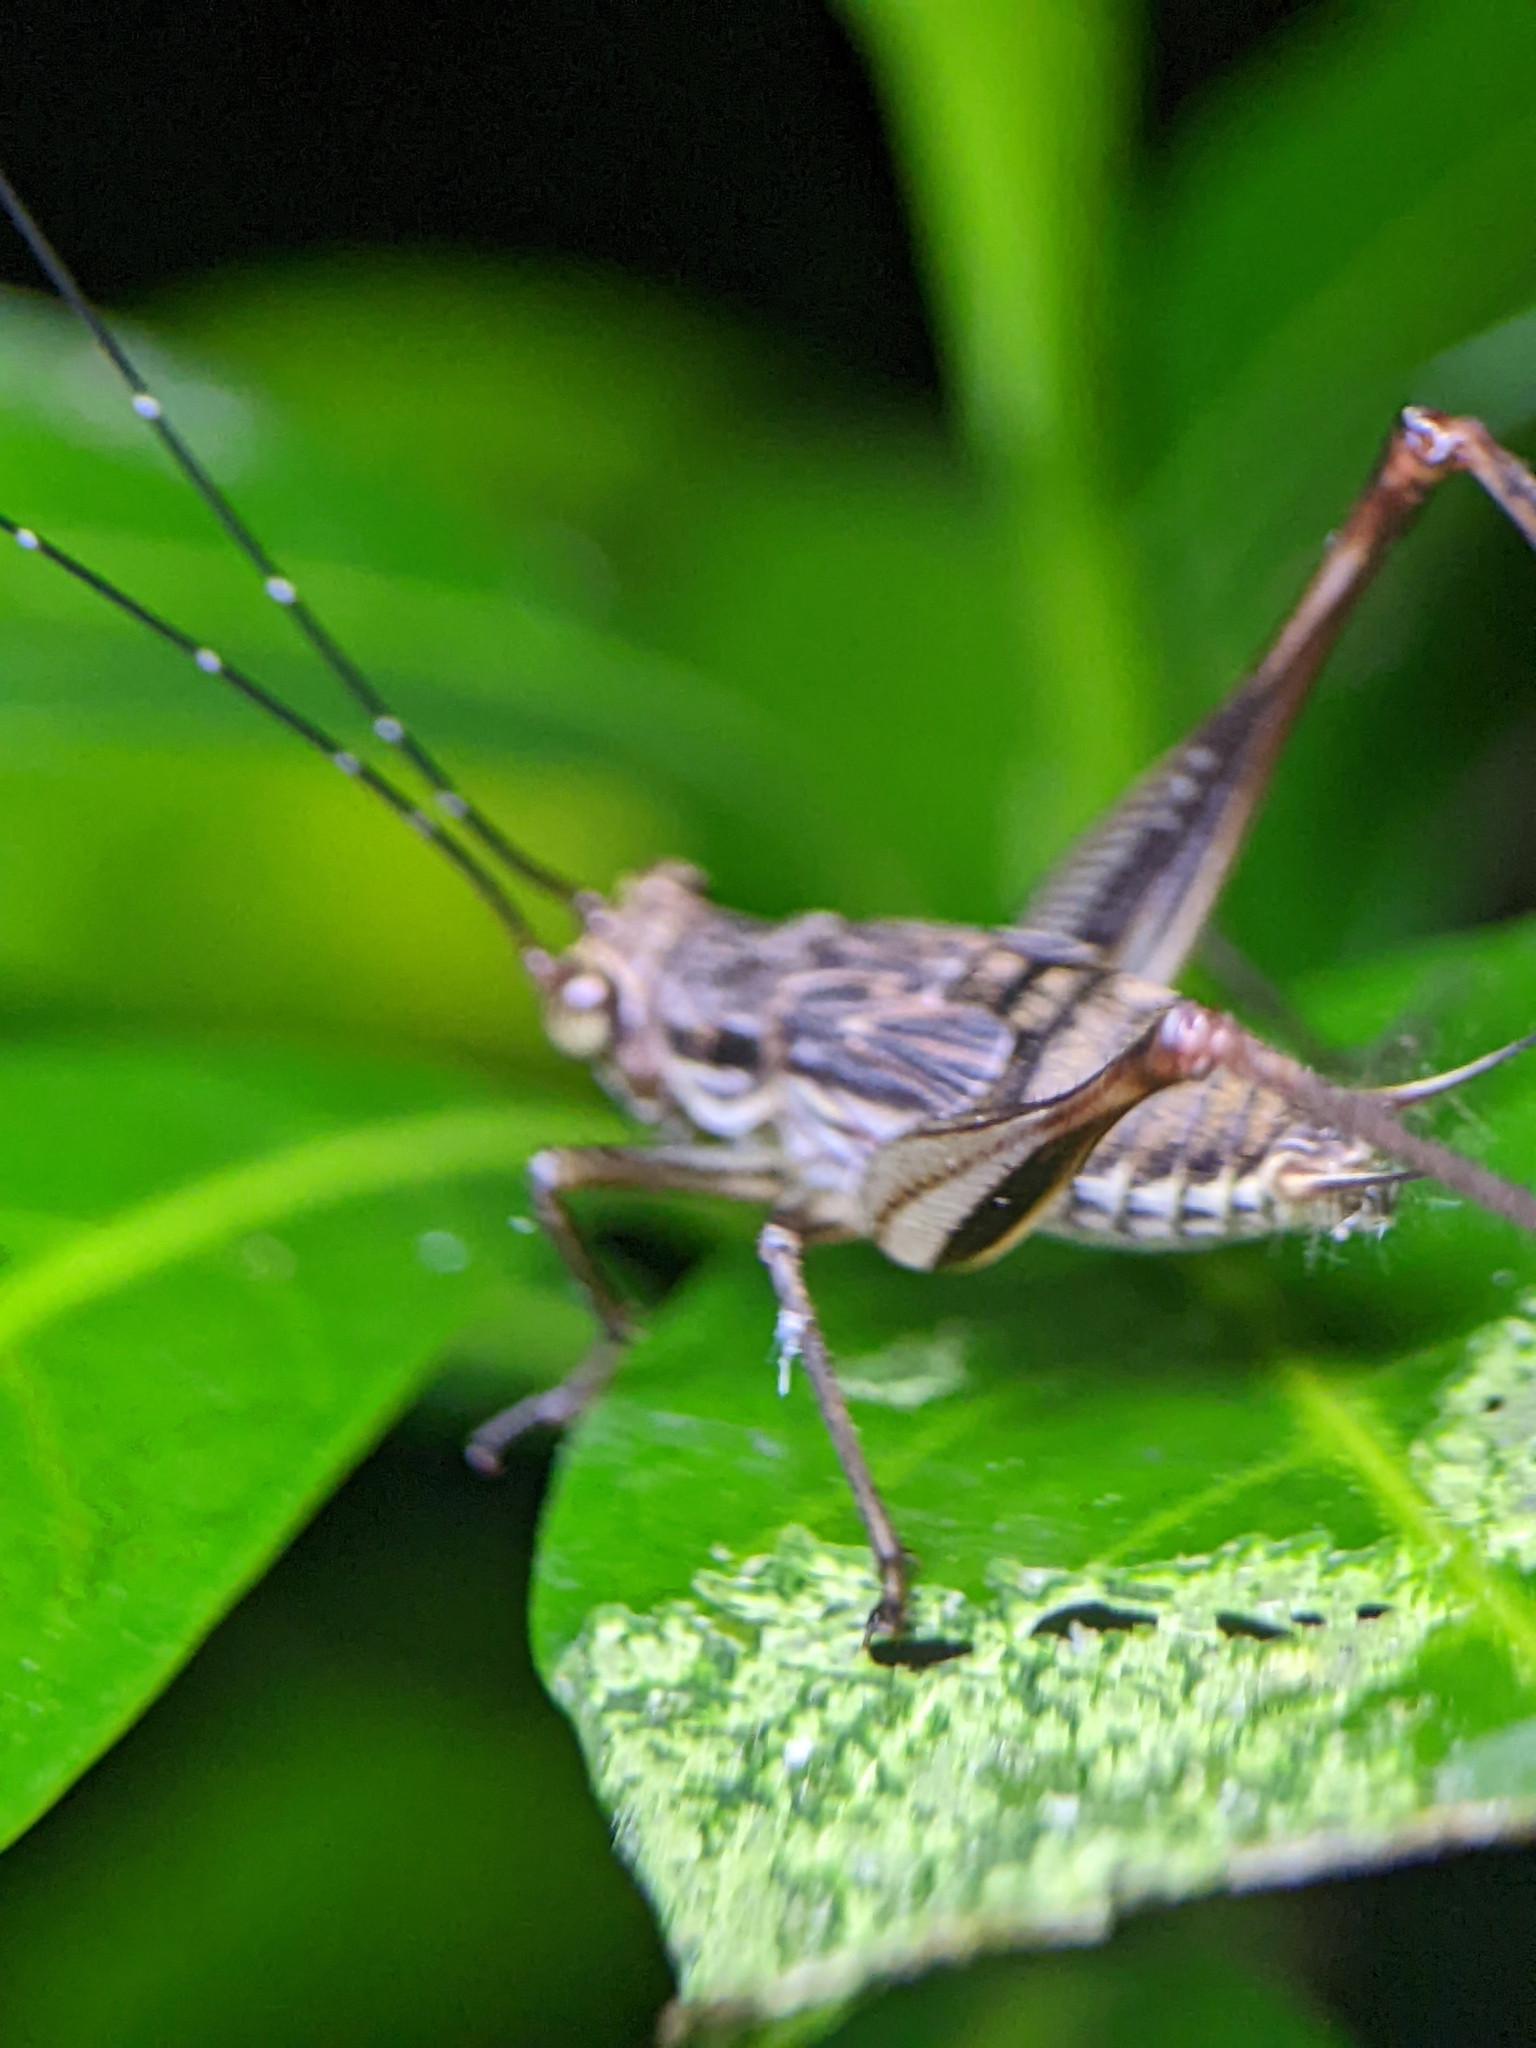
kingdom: Animalia
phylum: Arthropoda
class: Insecta
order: Orthoptera
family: Gryllidae
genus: Nisitrus
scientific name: Nisitrus malaya
